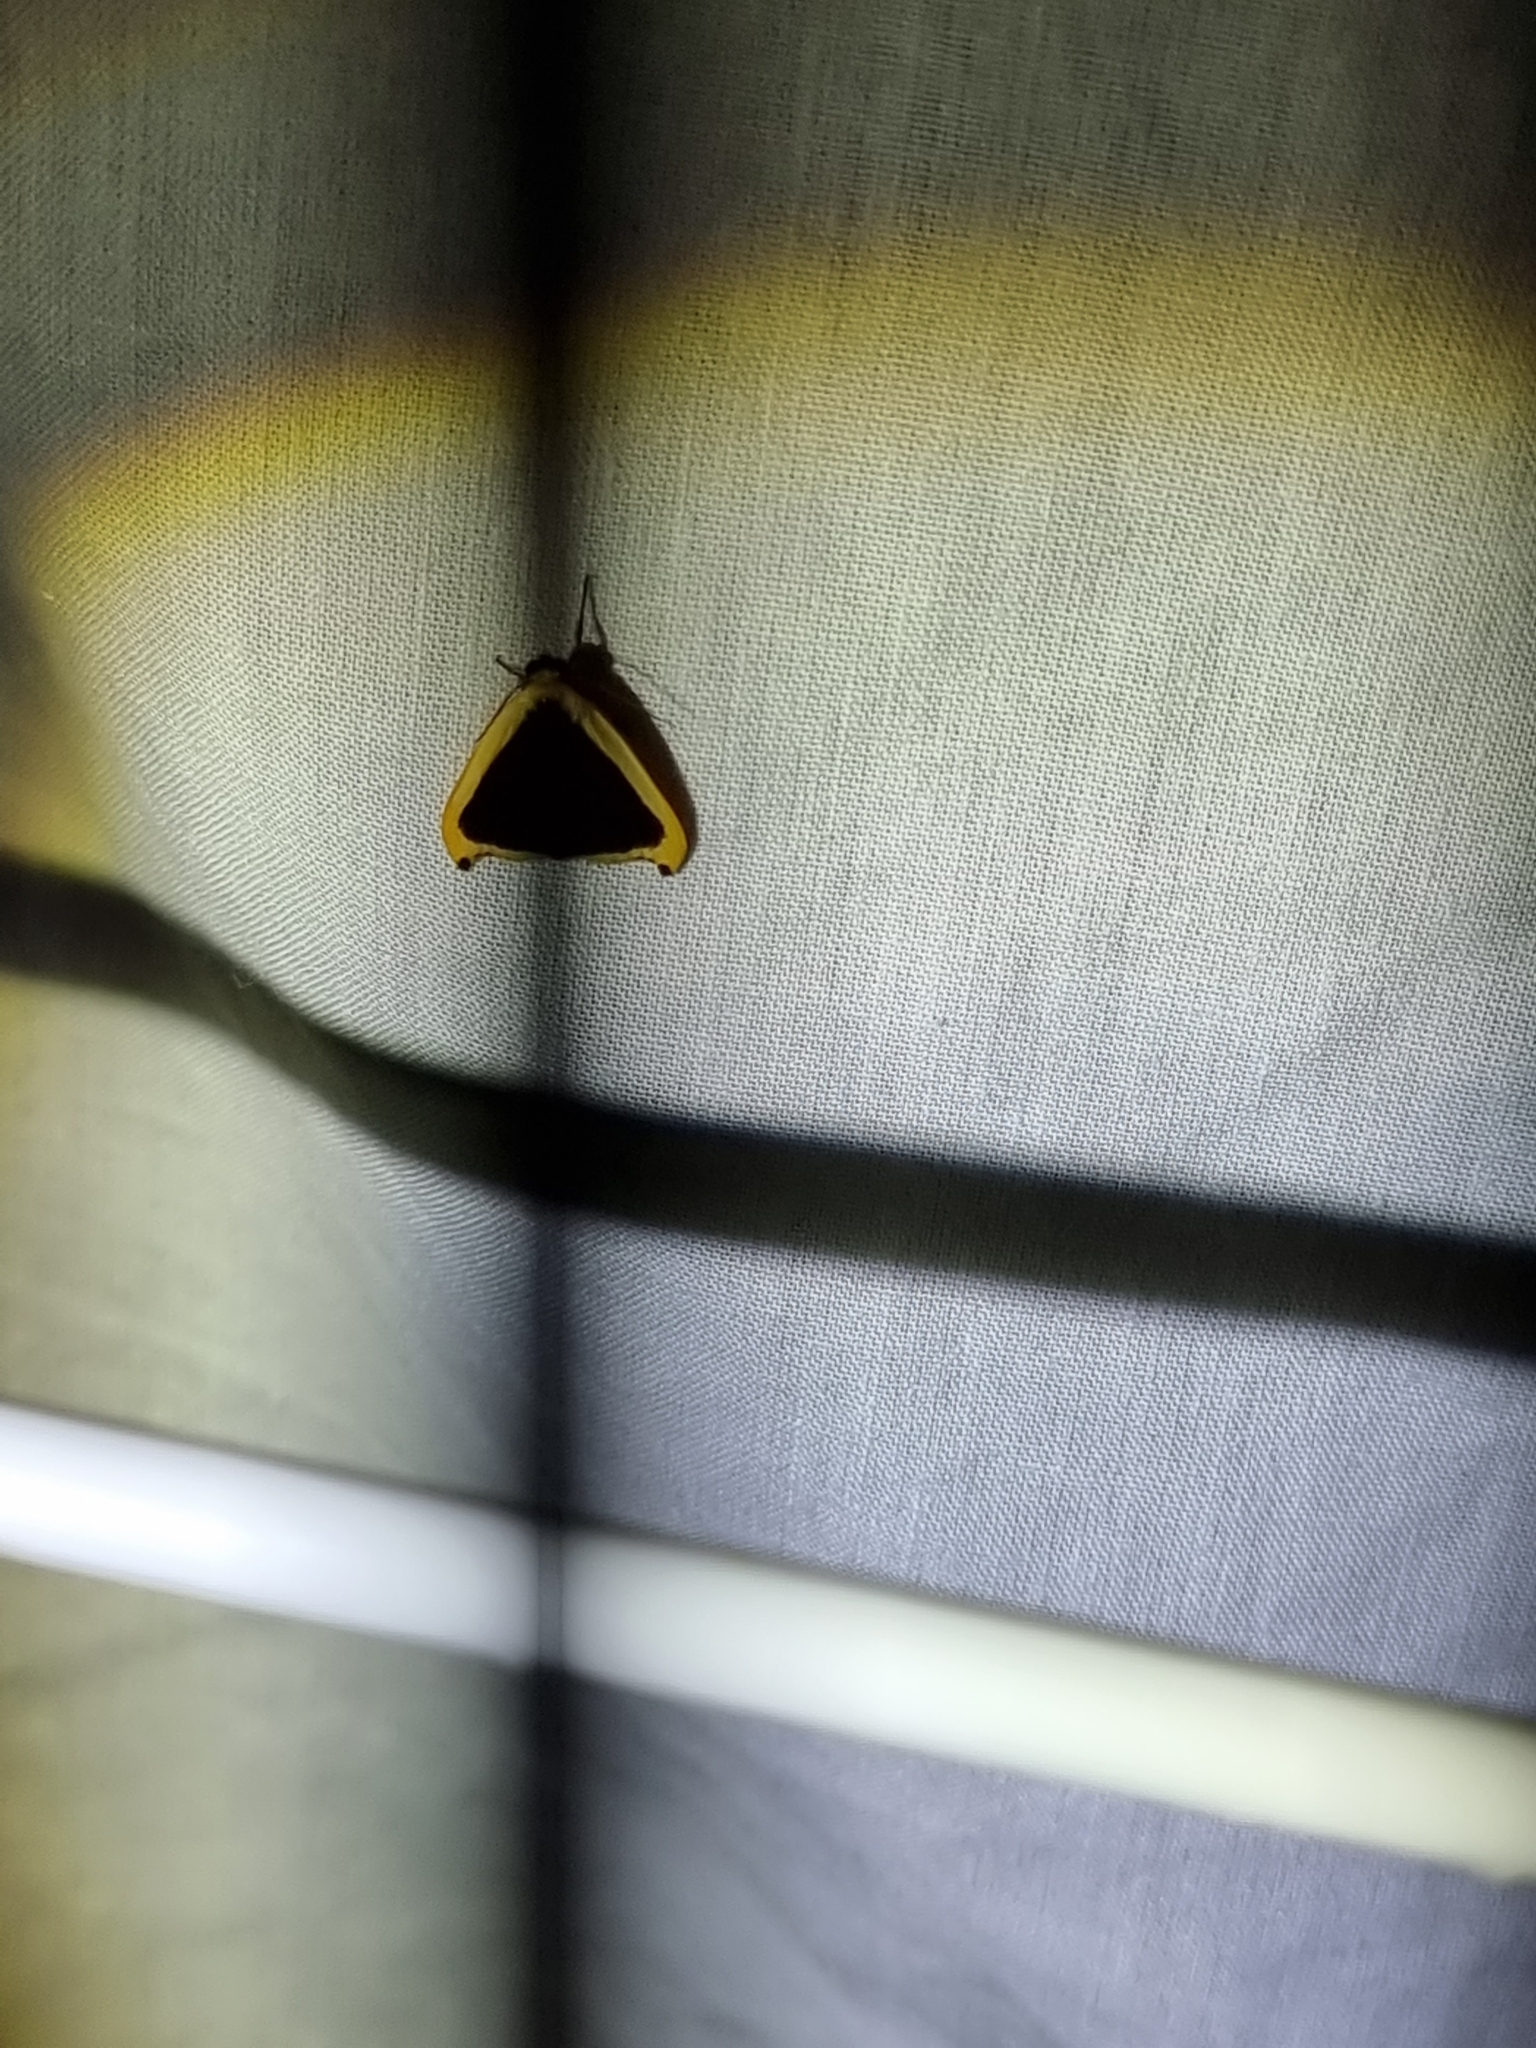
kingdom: Animalia
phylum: Arthropoda
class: Insecta
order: Lepidoptera
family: Erebidae
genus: Termessa
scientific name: Termessa conographa
